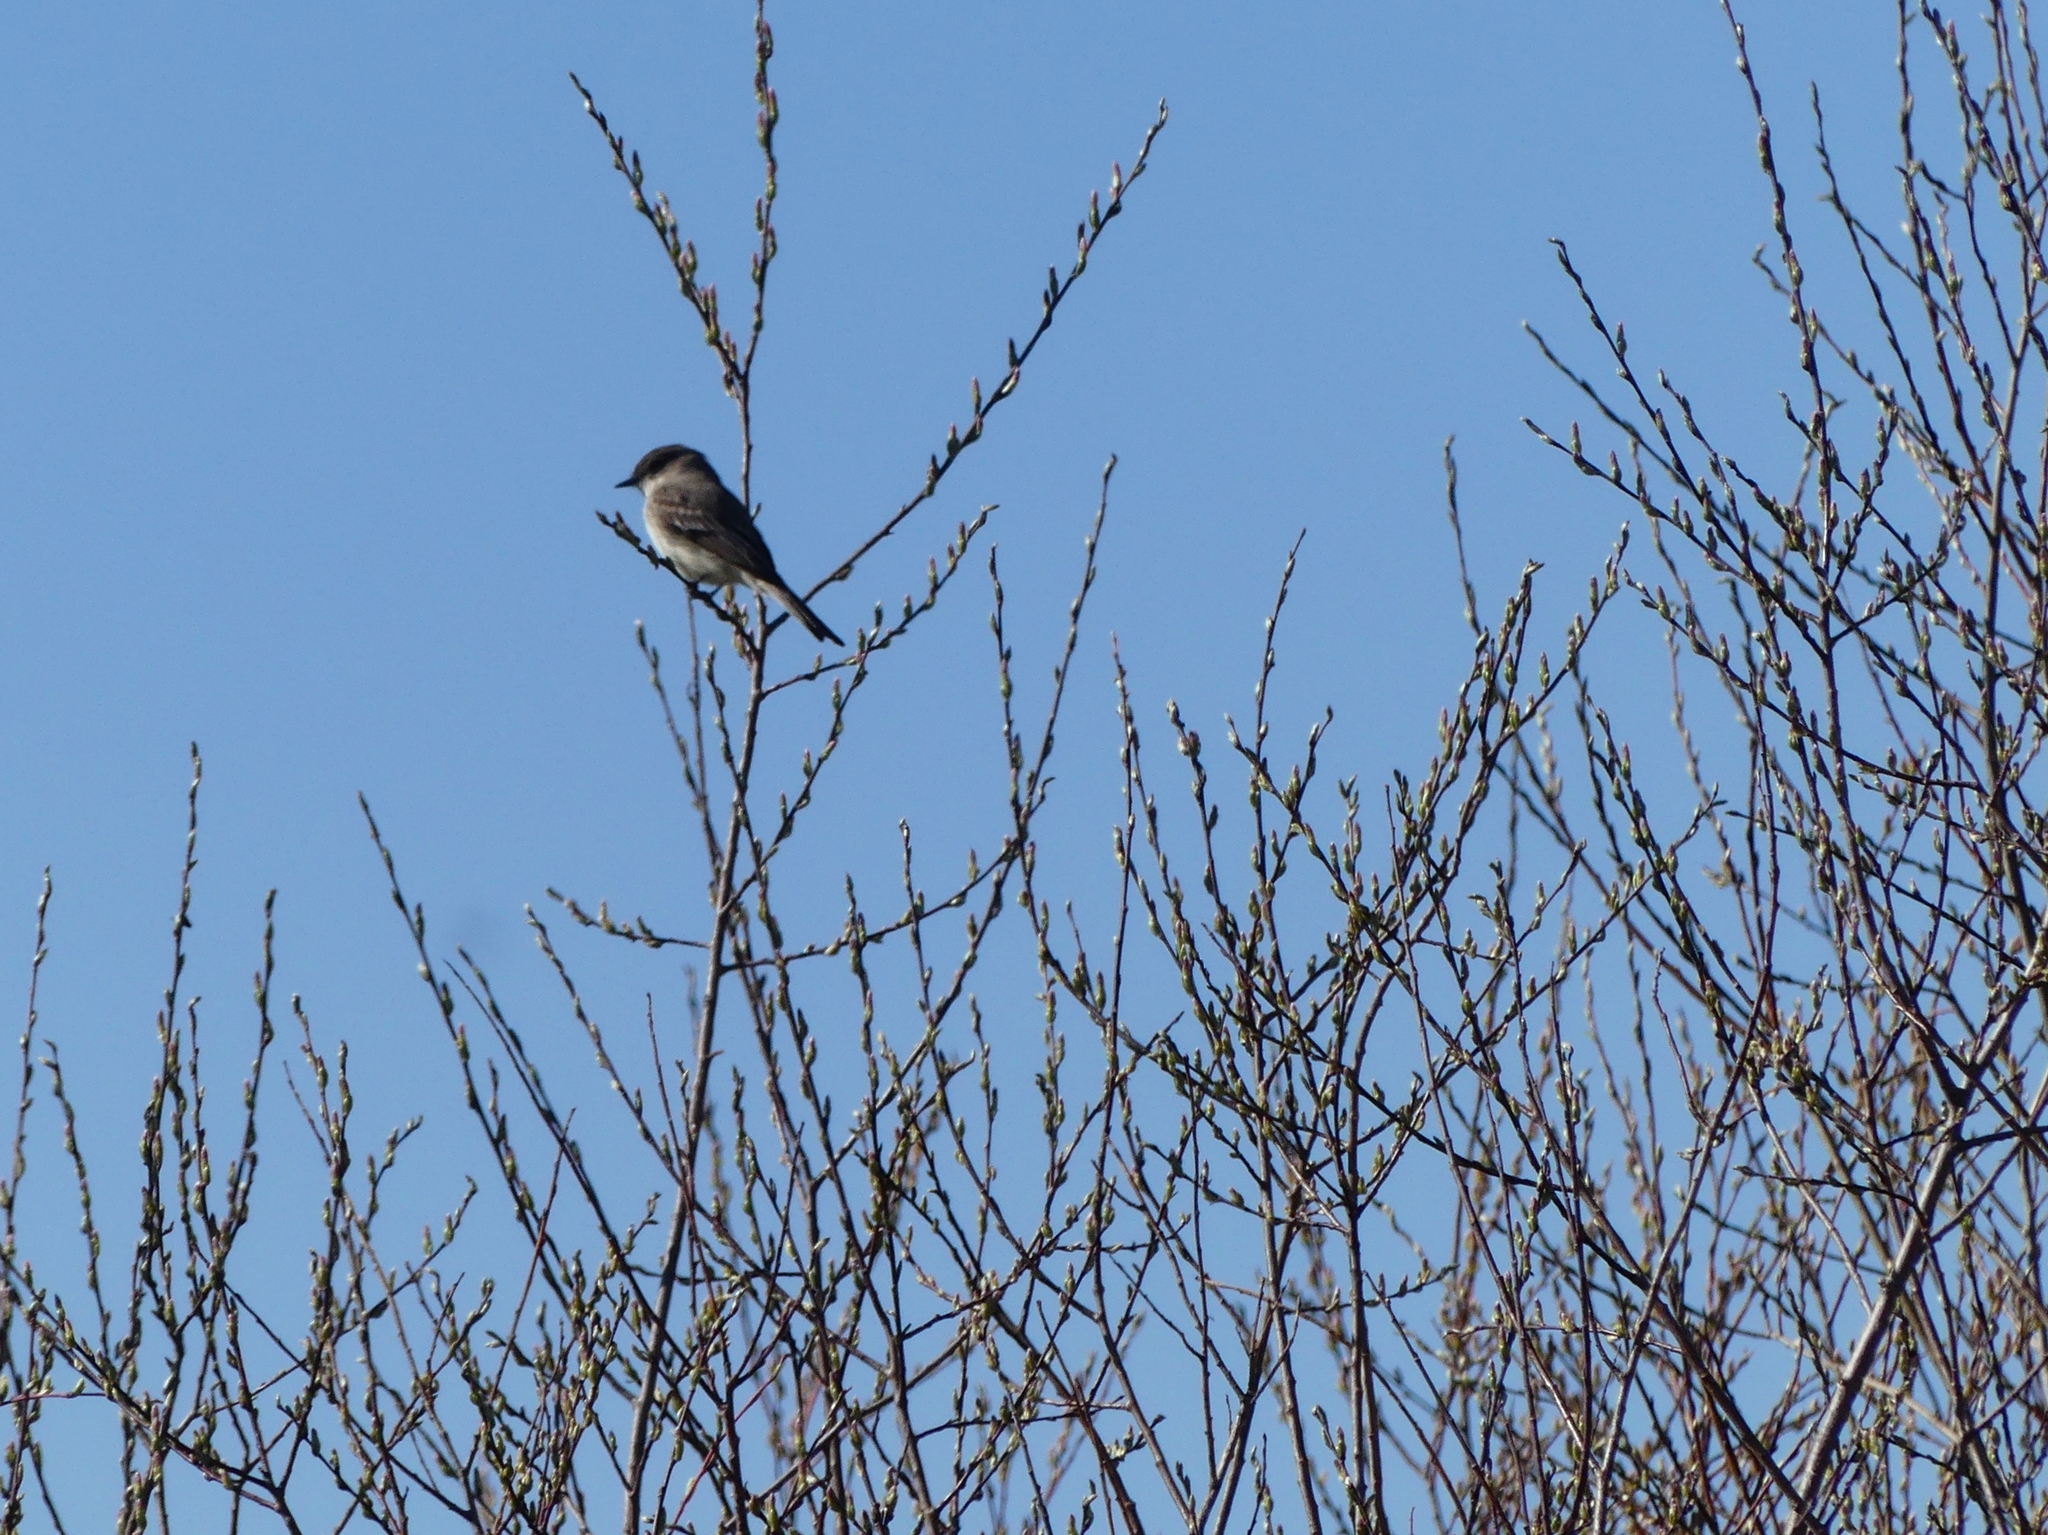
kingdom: Animalia
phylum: Chordata
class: Aves
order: Passeriformes
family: Tyrannidae
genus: Sayornis
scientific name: Sayornis phoebe
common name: Eastern phoebe
